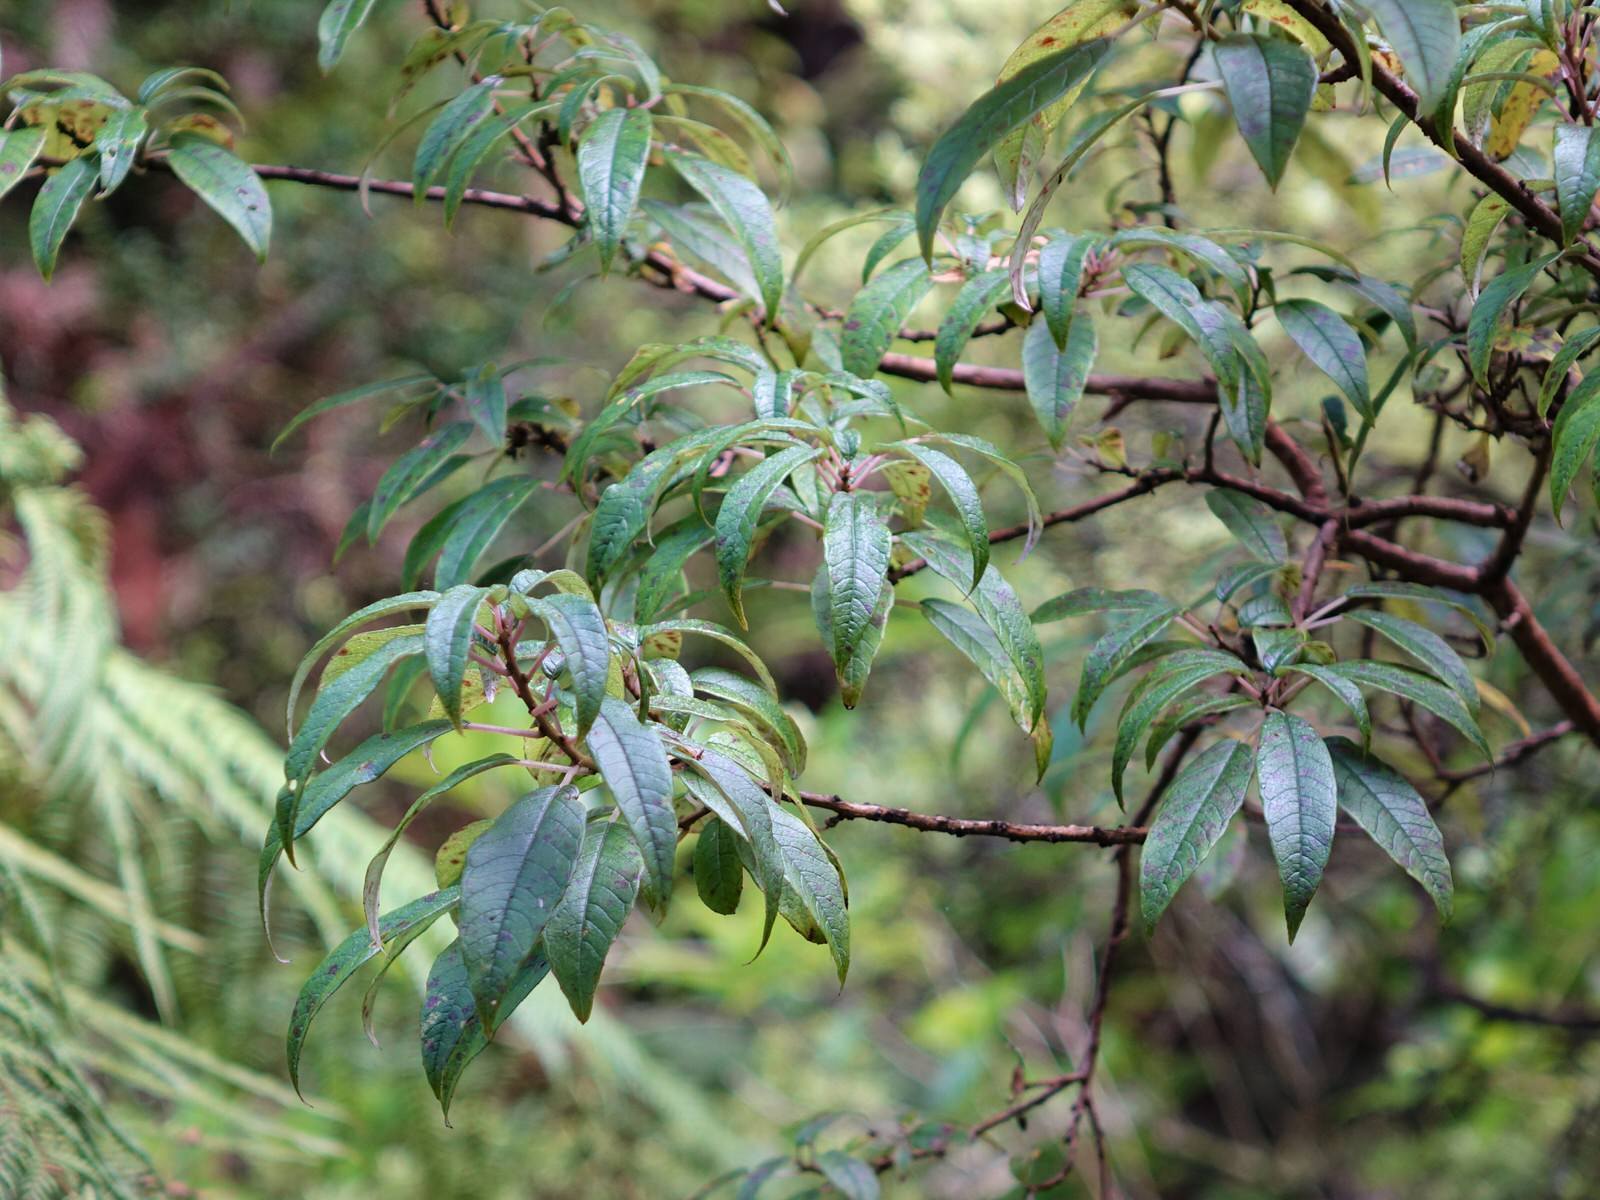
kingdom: Plantae
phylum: Tracheophyta
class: Magnoliopsida
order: Myrtales
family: Onagraceae
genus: Fuchsia
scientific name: Fuchsia excorticata
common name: Tree fuchsia
